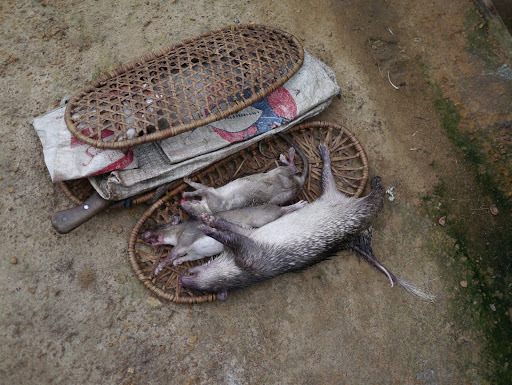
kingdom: Animalia
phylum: Chordata
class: Mammalia
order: Rodentia
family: Nesomyidae
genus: Cricetomys
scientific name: Cricetomys emini
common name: Forest giant pouched rat
